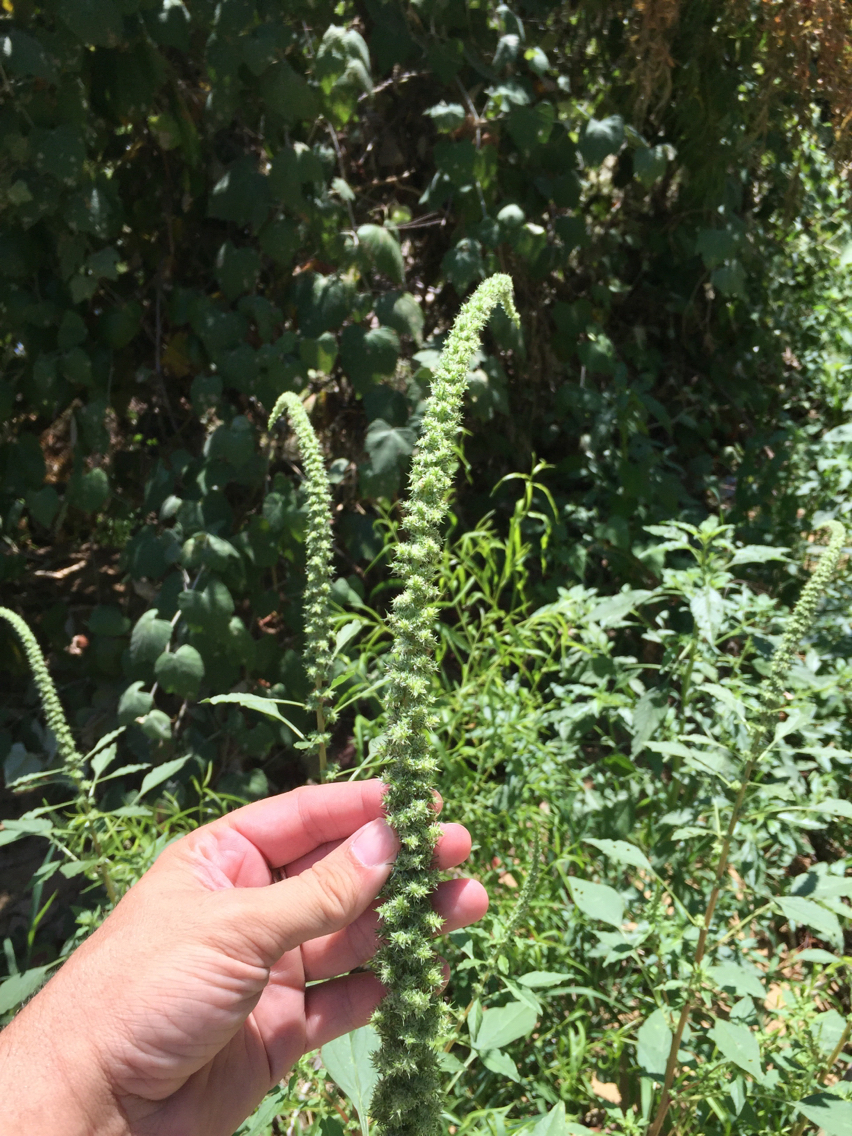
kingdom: Plantae
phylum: Tracheophyta
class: Magnoliopsida
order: Caryophyllales
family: Amaranthaceae
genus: Amaranthus
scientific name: Amaranthus palmeri
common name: Dioecious amaranth
